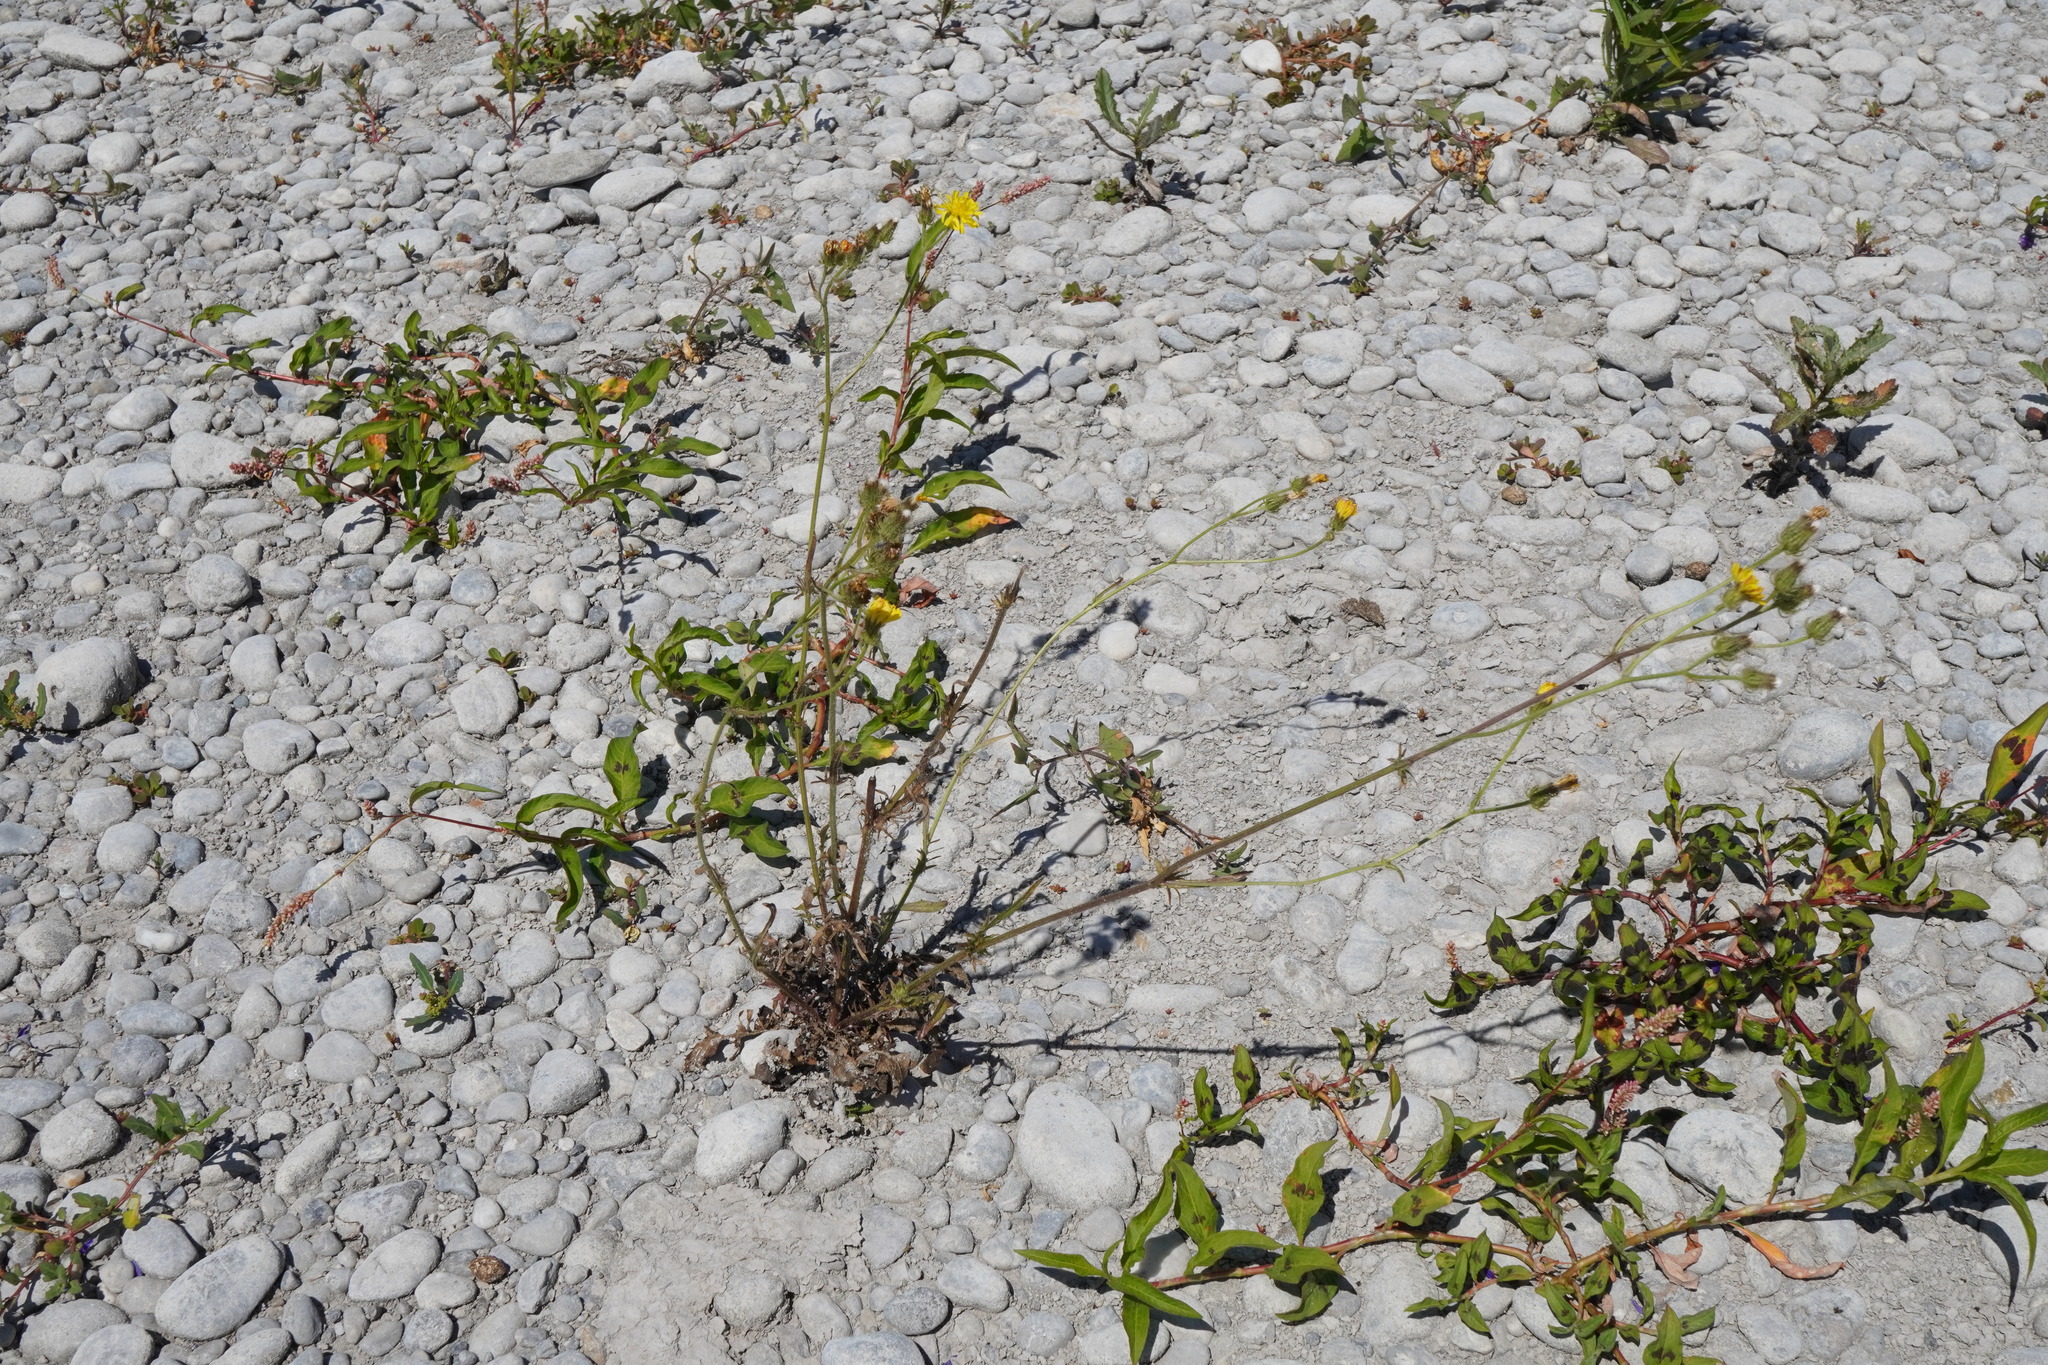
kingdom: Plantae
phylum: Tracheophyta
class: Magnoliopsida
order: Asterales
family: Asteraceae
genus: Crepis
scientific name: Crepis setosa
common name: Bristly hawk's-beard
